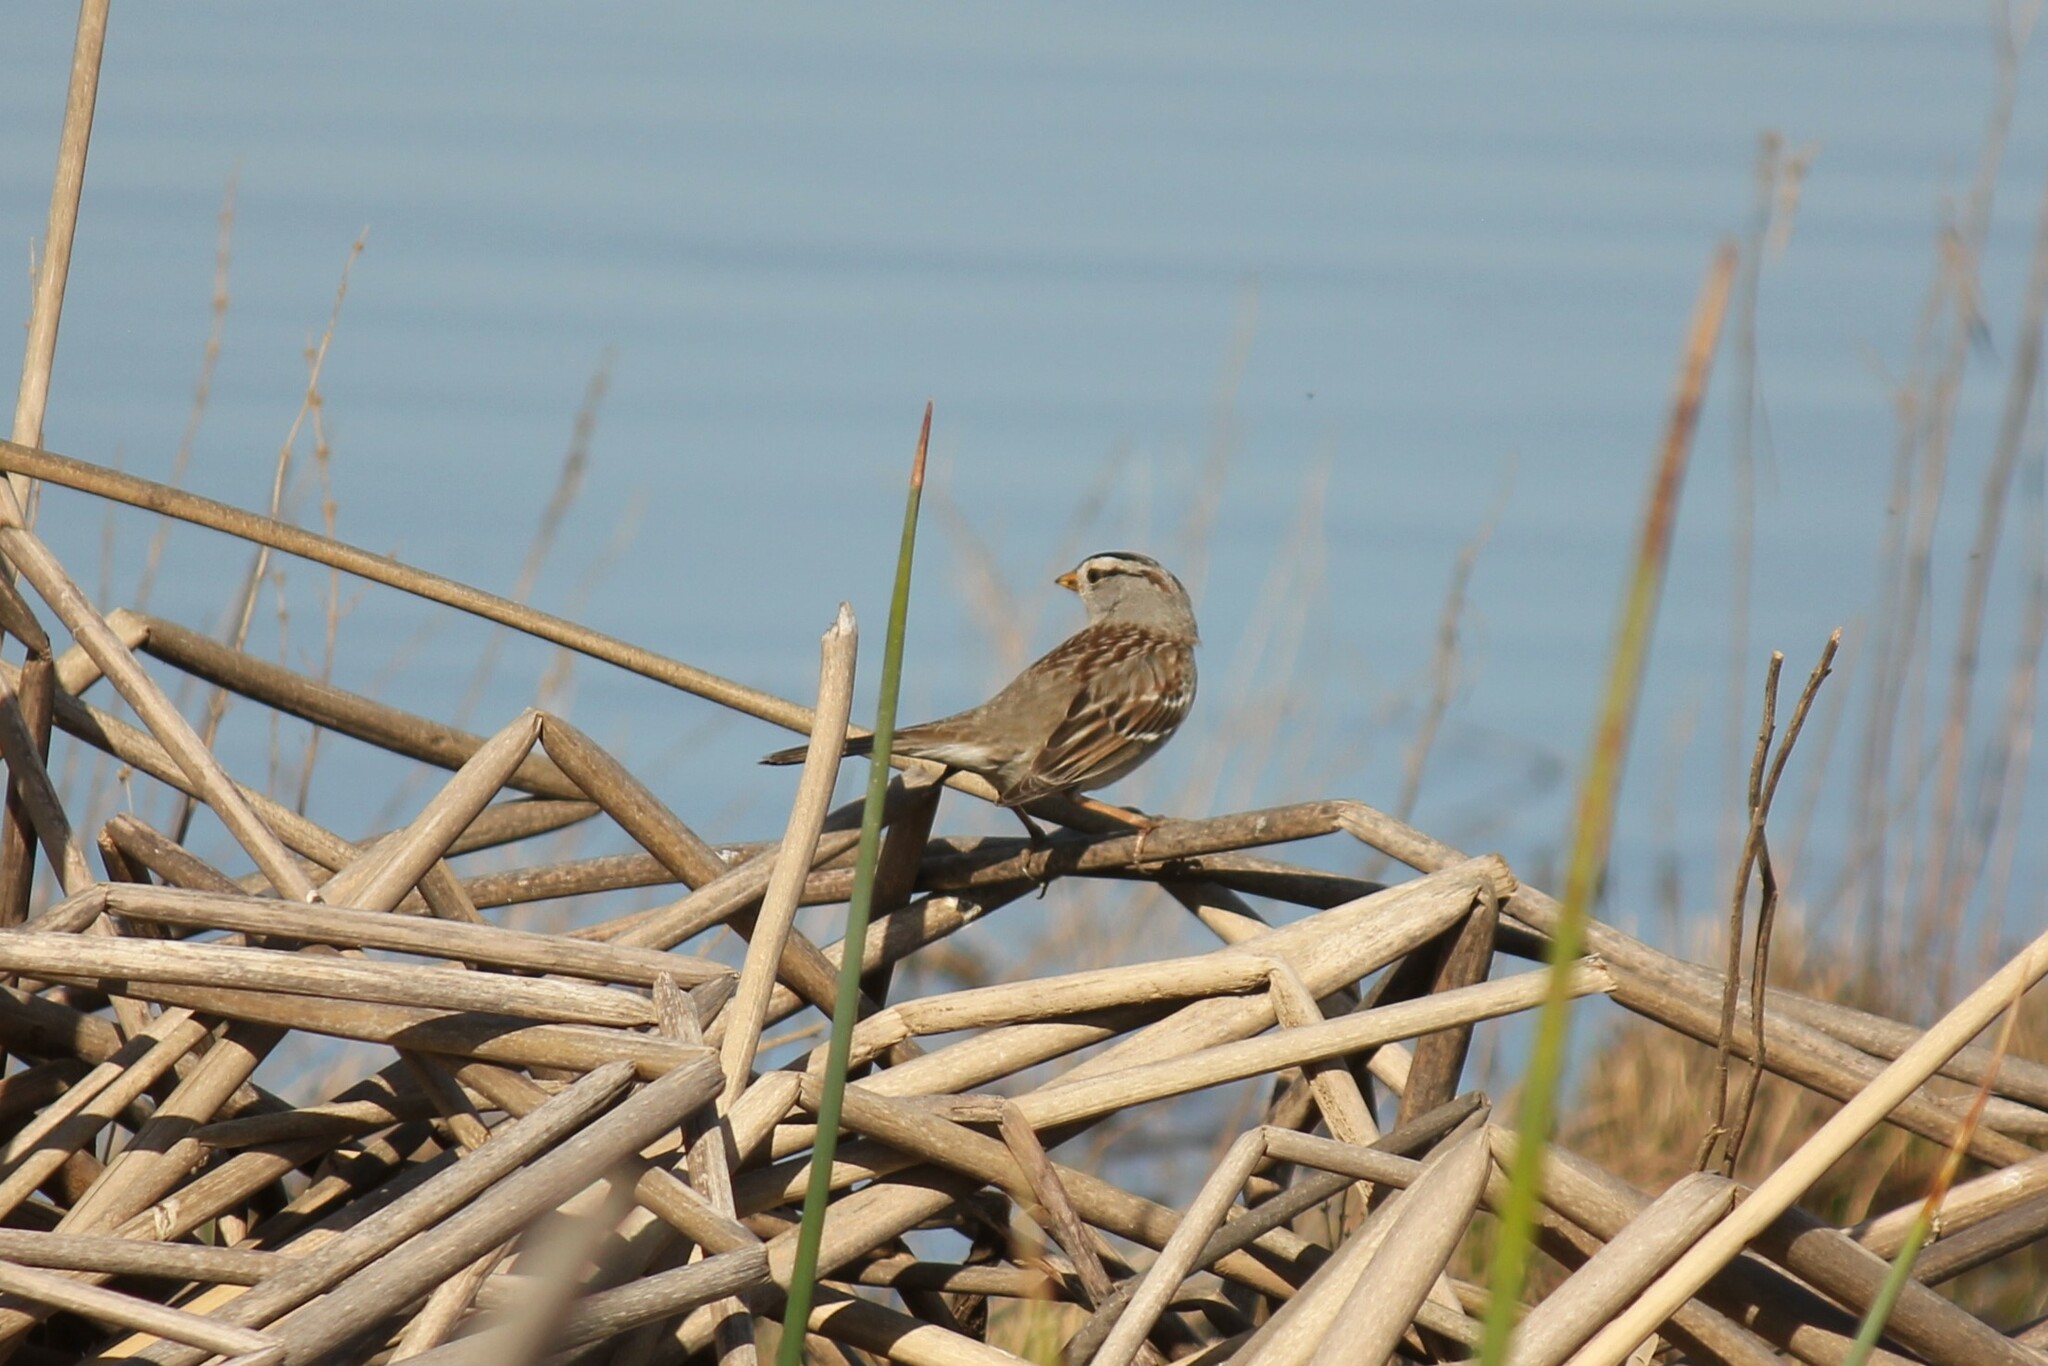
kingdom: Animalia
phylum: Chordata
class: Aves
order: Passeriformes
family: Passerellidae
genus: Zonotrichia
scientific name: Zonotrichia leucophrys
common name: White-crowned sparrow
